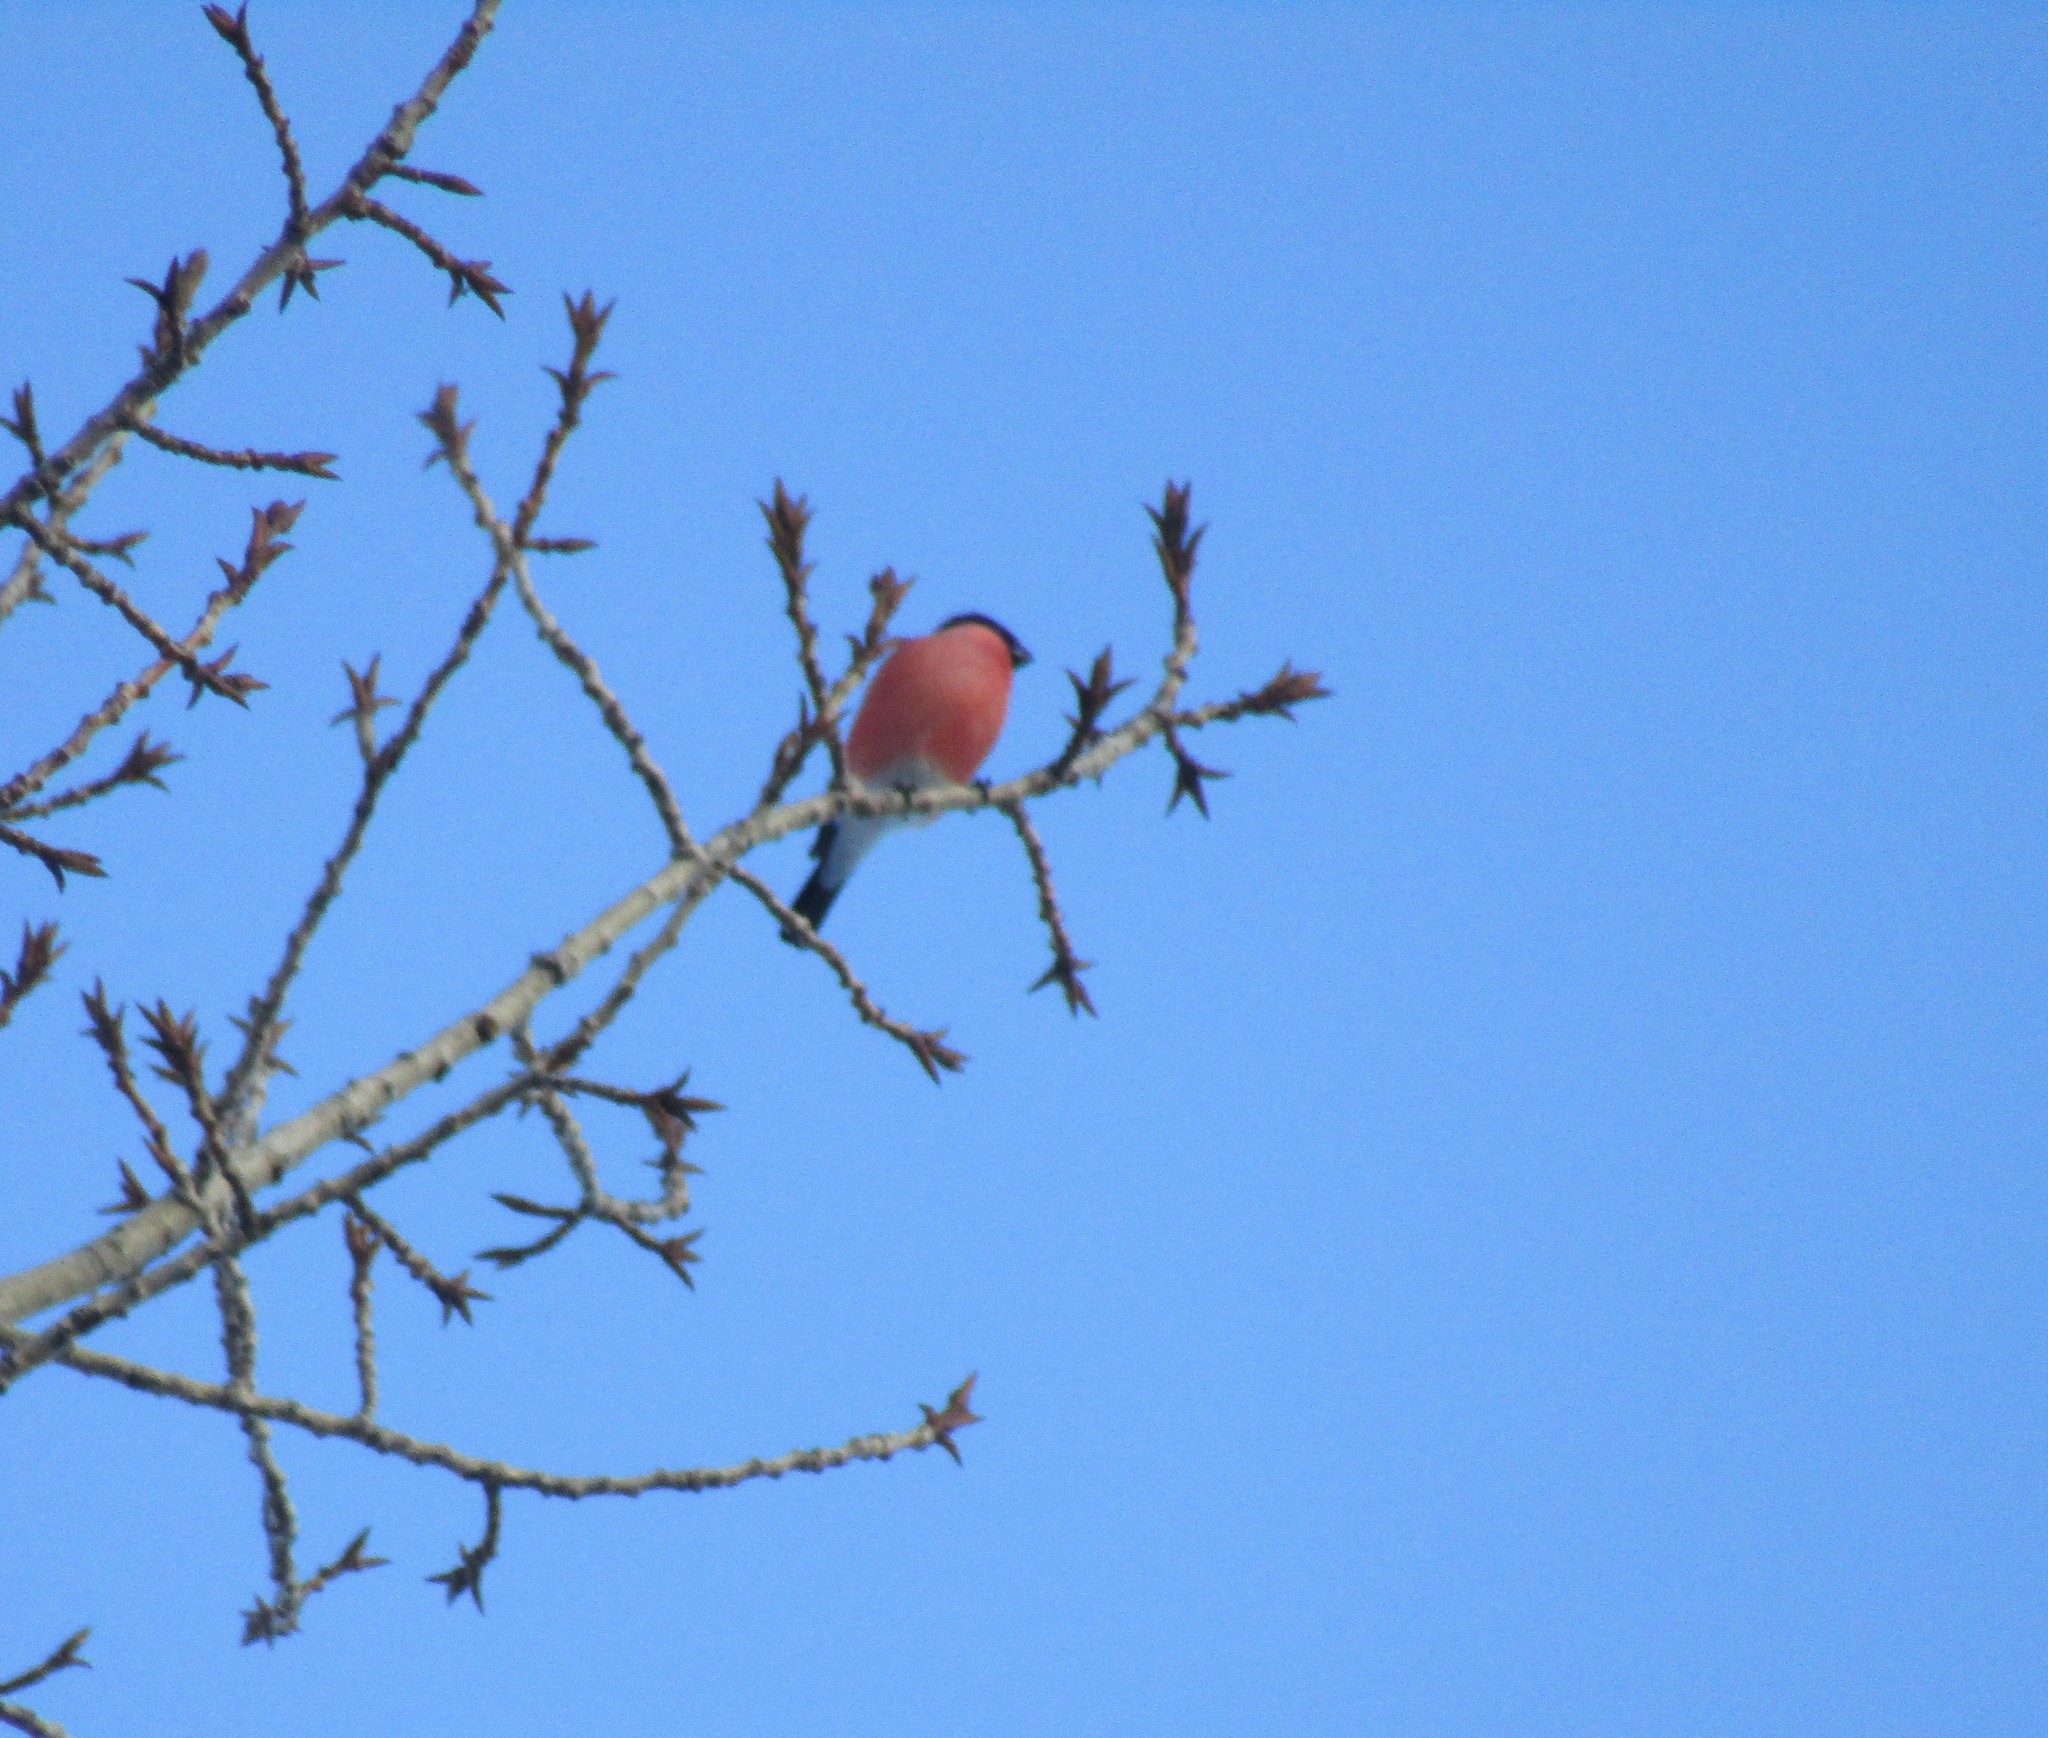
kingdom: Animalia
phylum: Chordata
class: Aves
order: Passeriformes
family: Fringillidae
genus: Pyrrhula
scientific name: Pyrrhula pyrrhula
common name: Eurasian bullfinch
